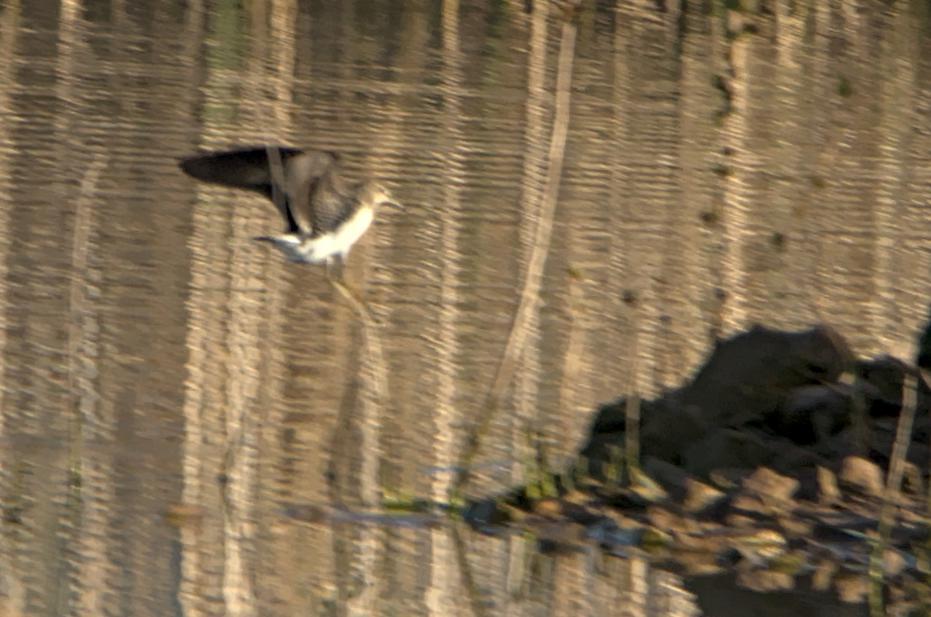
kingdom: Animalia
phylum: Chordata
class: Aves
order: Charadriiformes
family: Scolopacidae
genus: Tringa
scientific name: Tringa ochropus
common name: Green sandpiper
